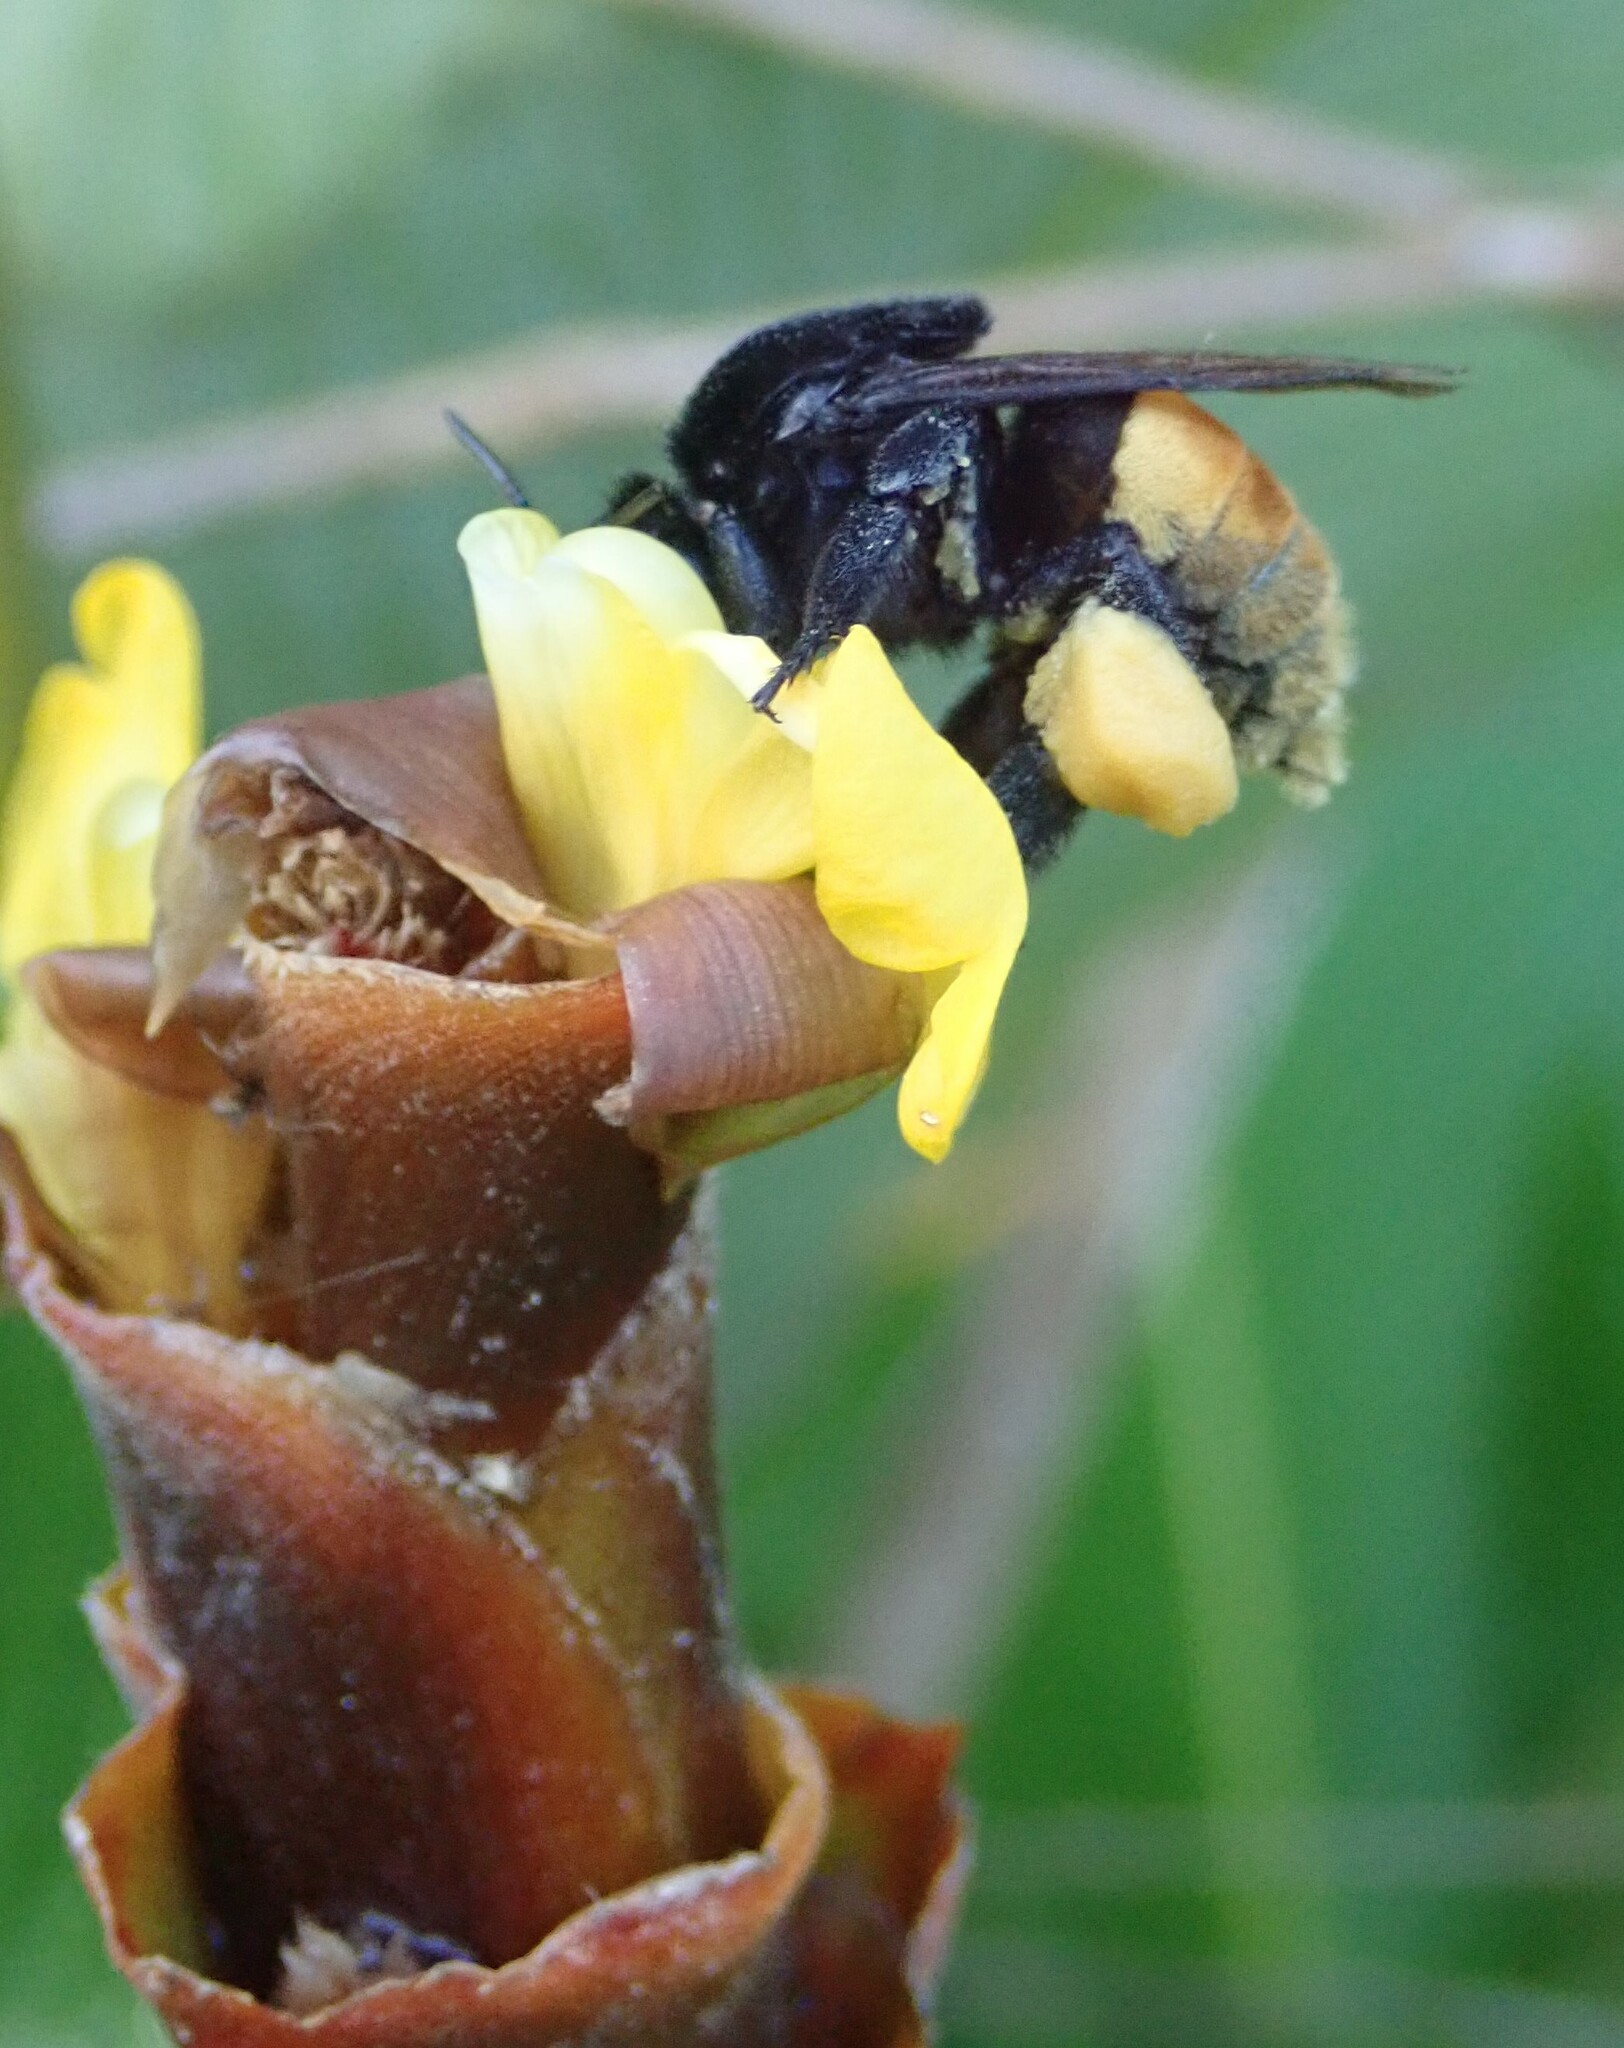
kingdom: Animalia
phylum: Arthropoda
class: Insecta
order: Hymenoptera
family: Apidae
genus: Eulaema
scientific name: Eulaema polychroma
